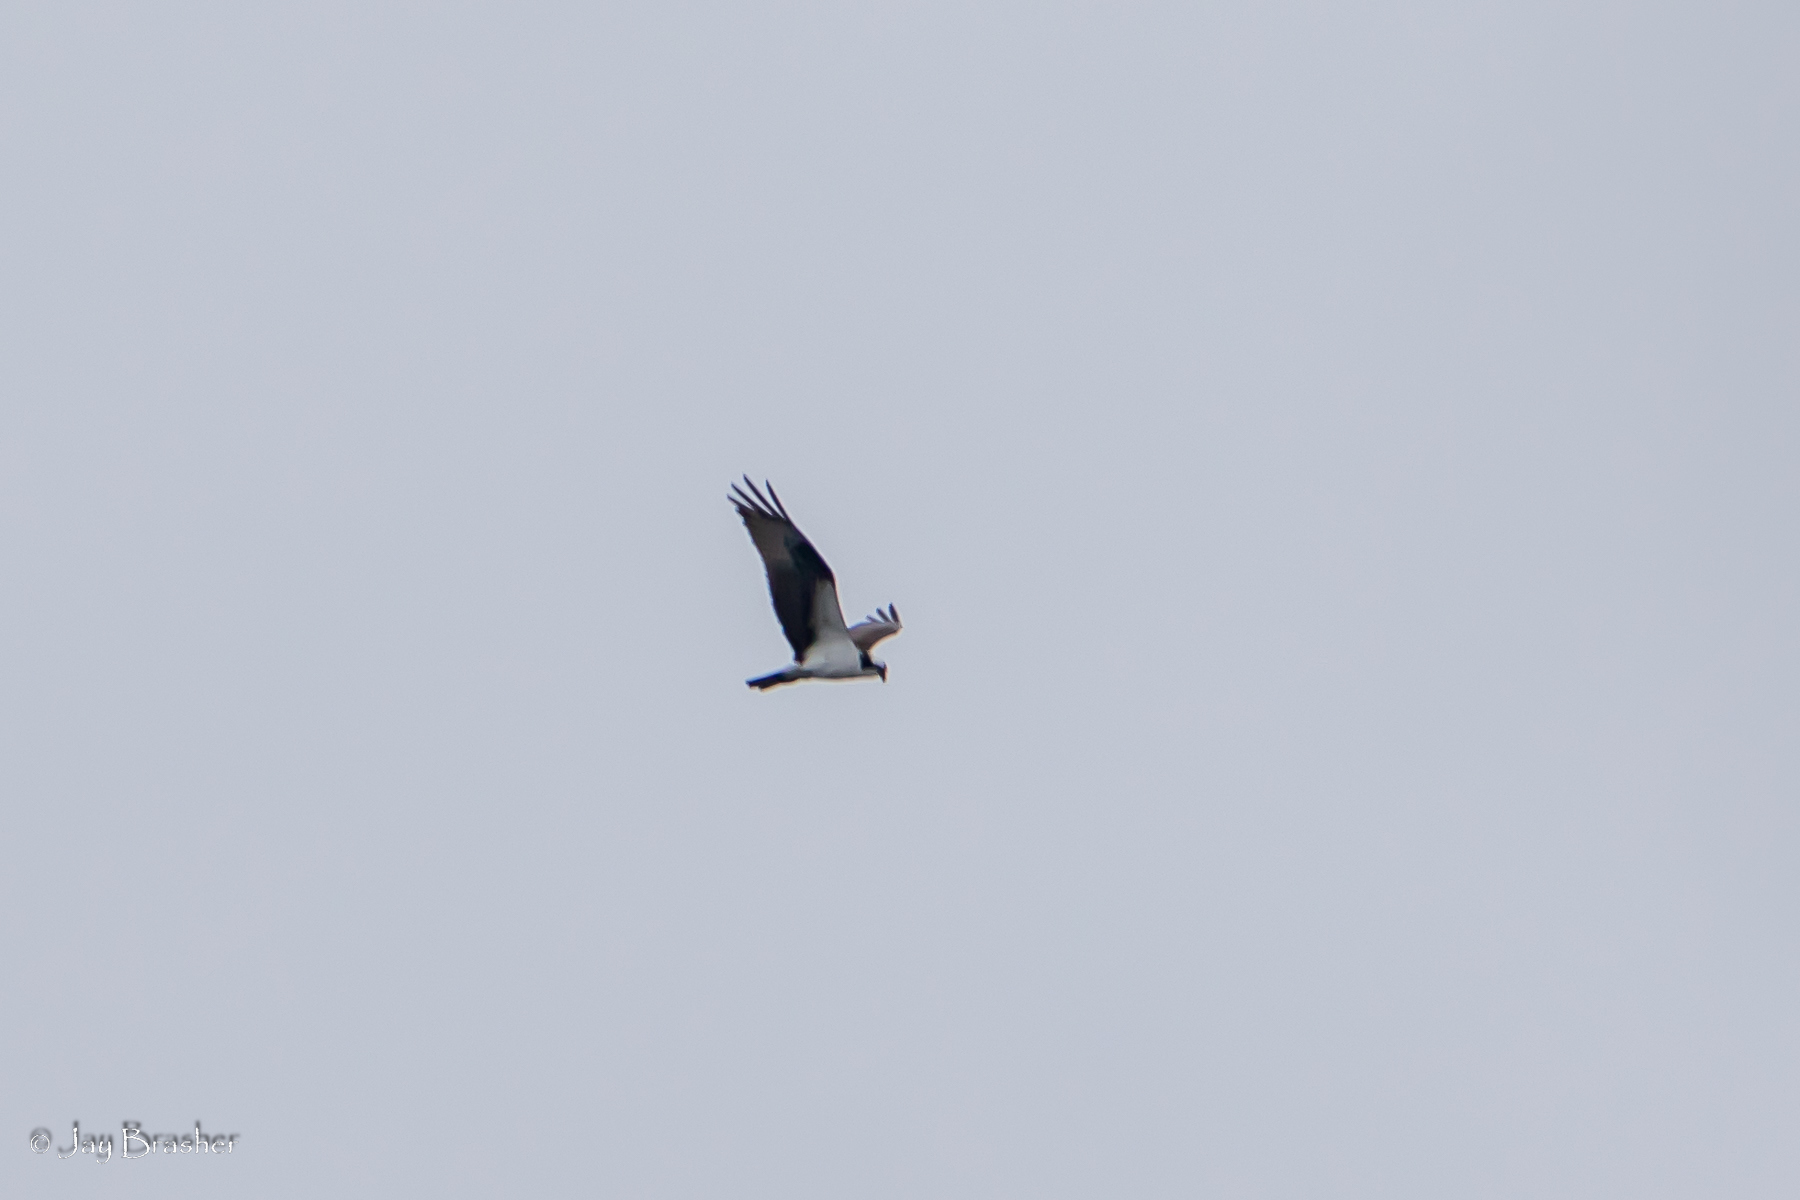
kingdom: Animalia
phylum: Chordata
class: Aves
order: Accipitriformes
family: Pandionidae
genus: Pandion
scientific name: Pandion haliaetus
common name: Osprey
